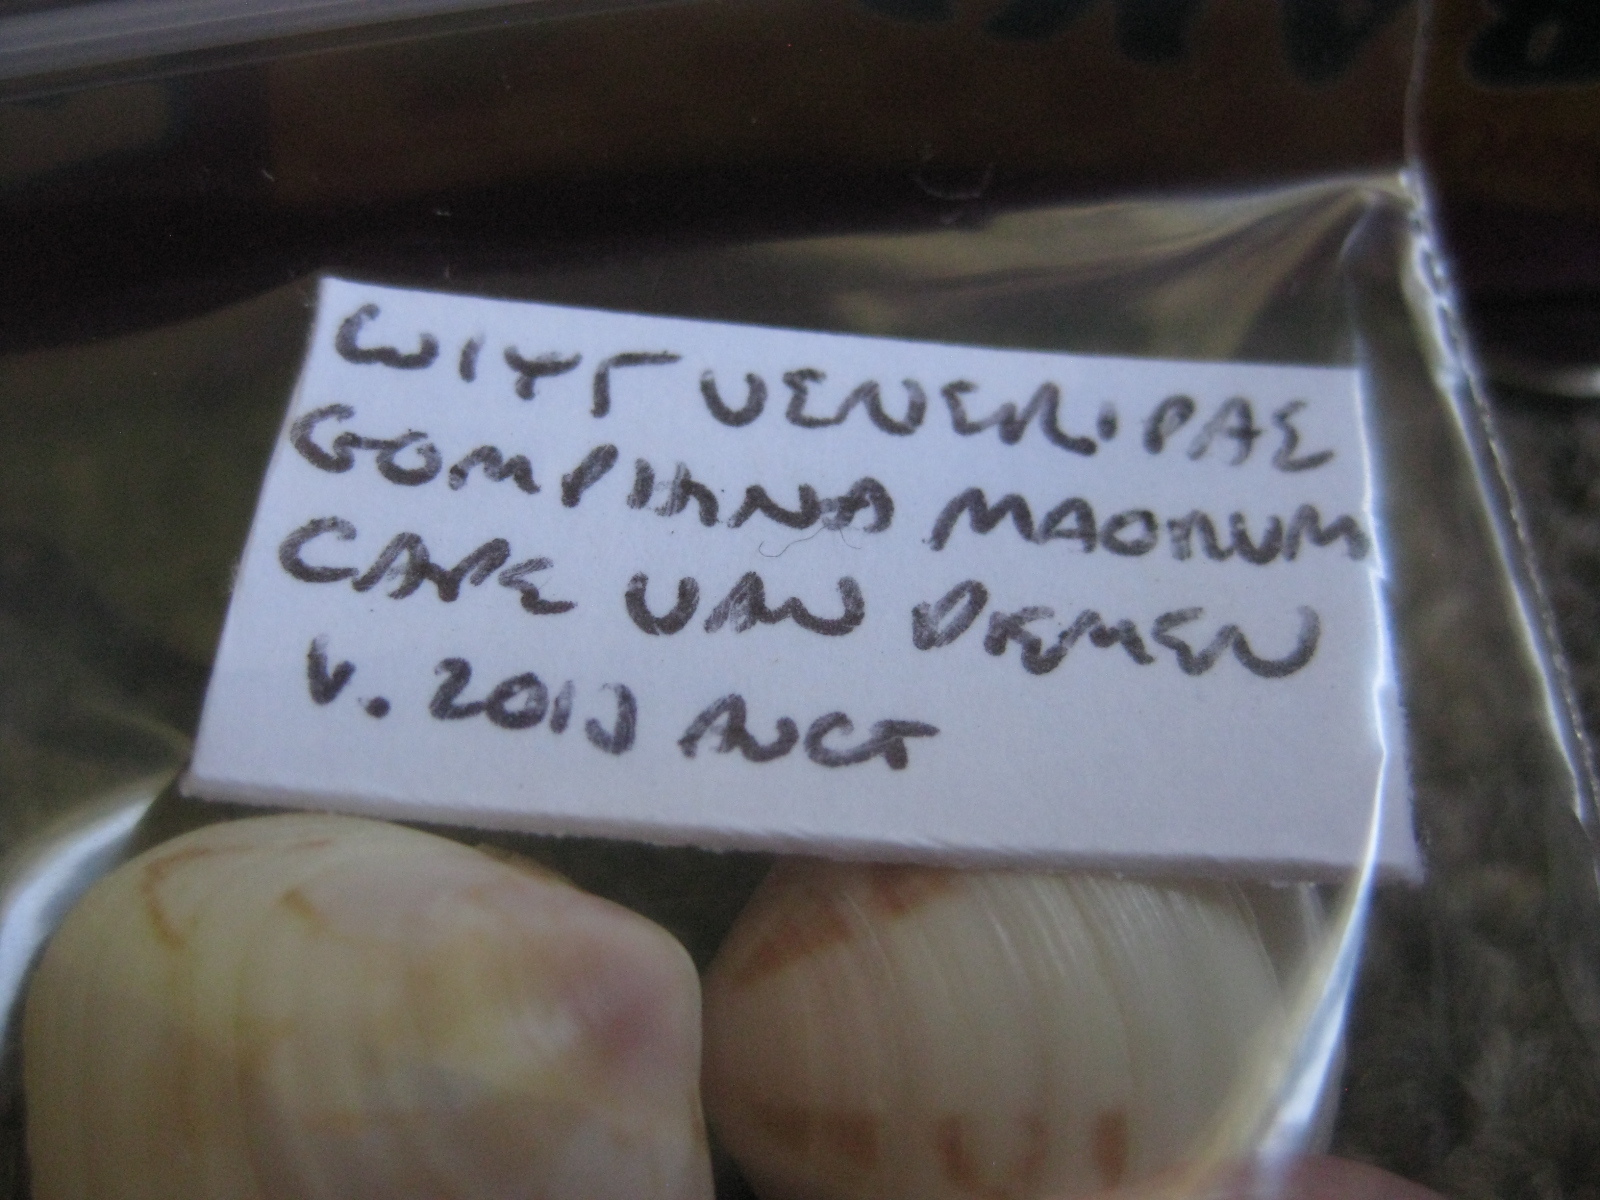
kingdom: Animalia
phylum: Mollusca
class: Bivalvia
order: Venerida
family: Veneridae
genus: Gomphina
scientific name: Gomphina maorum
